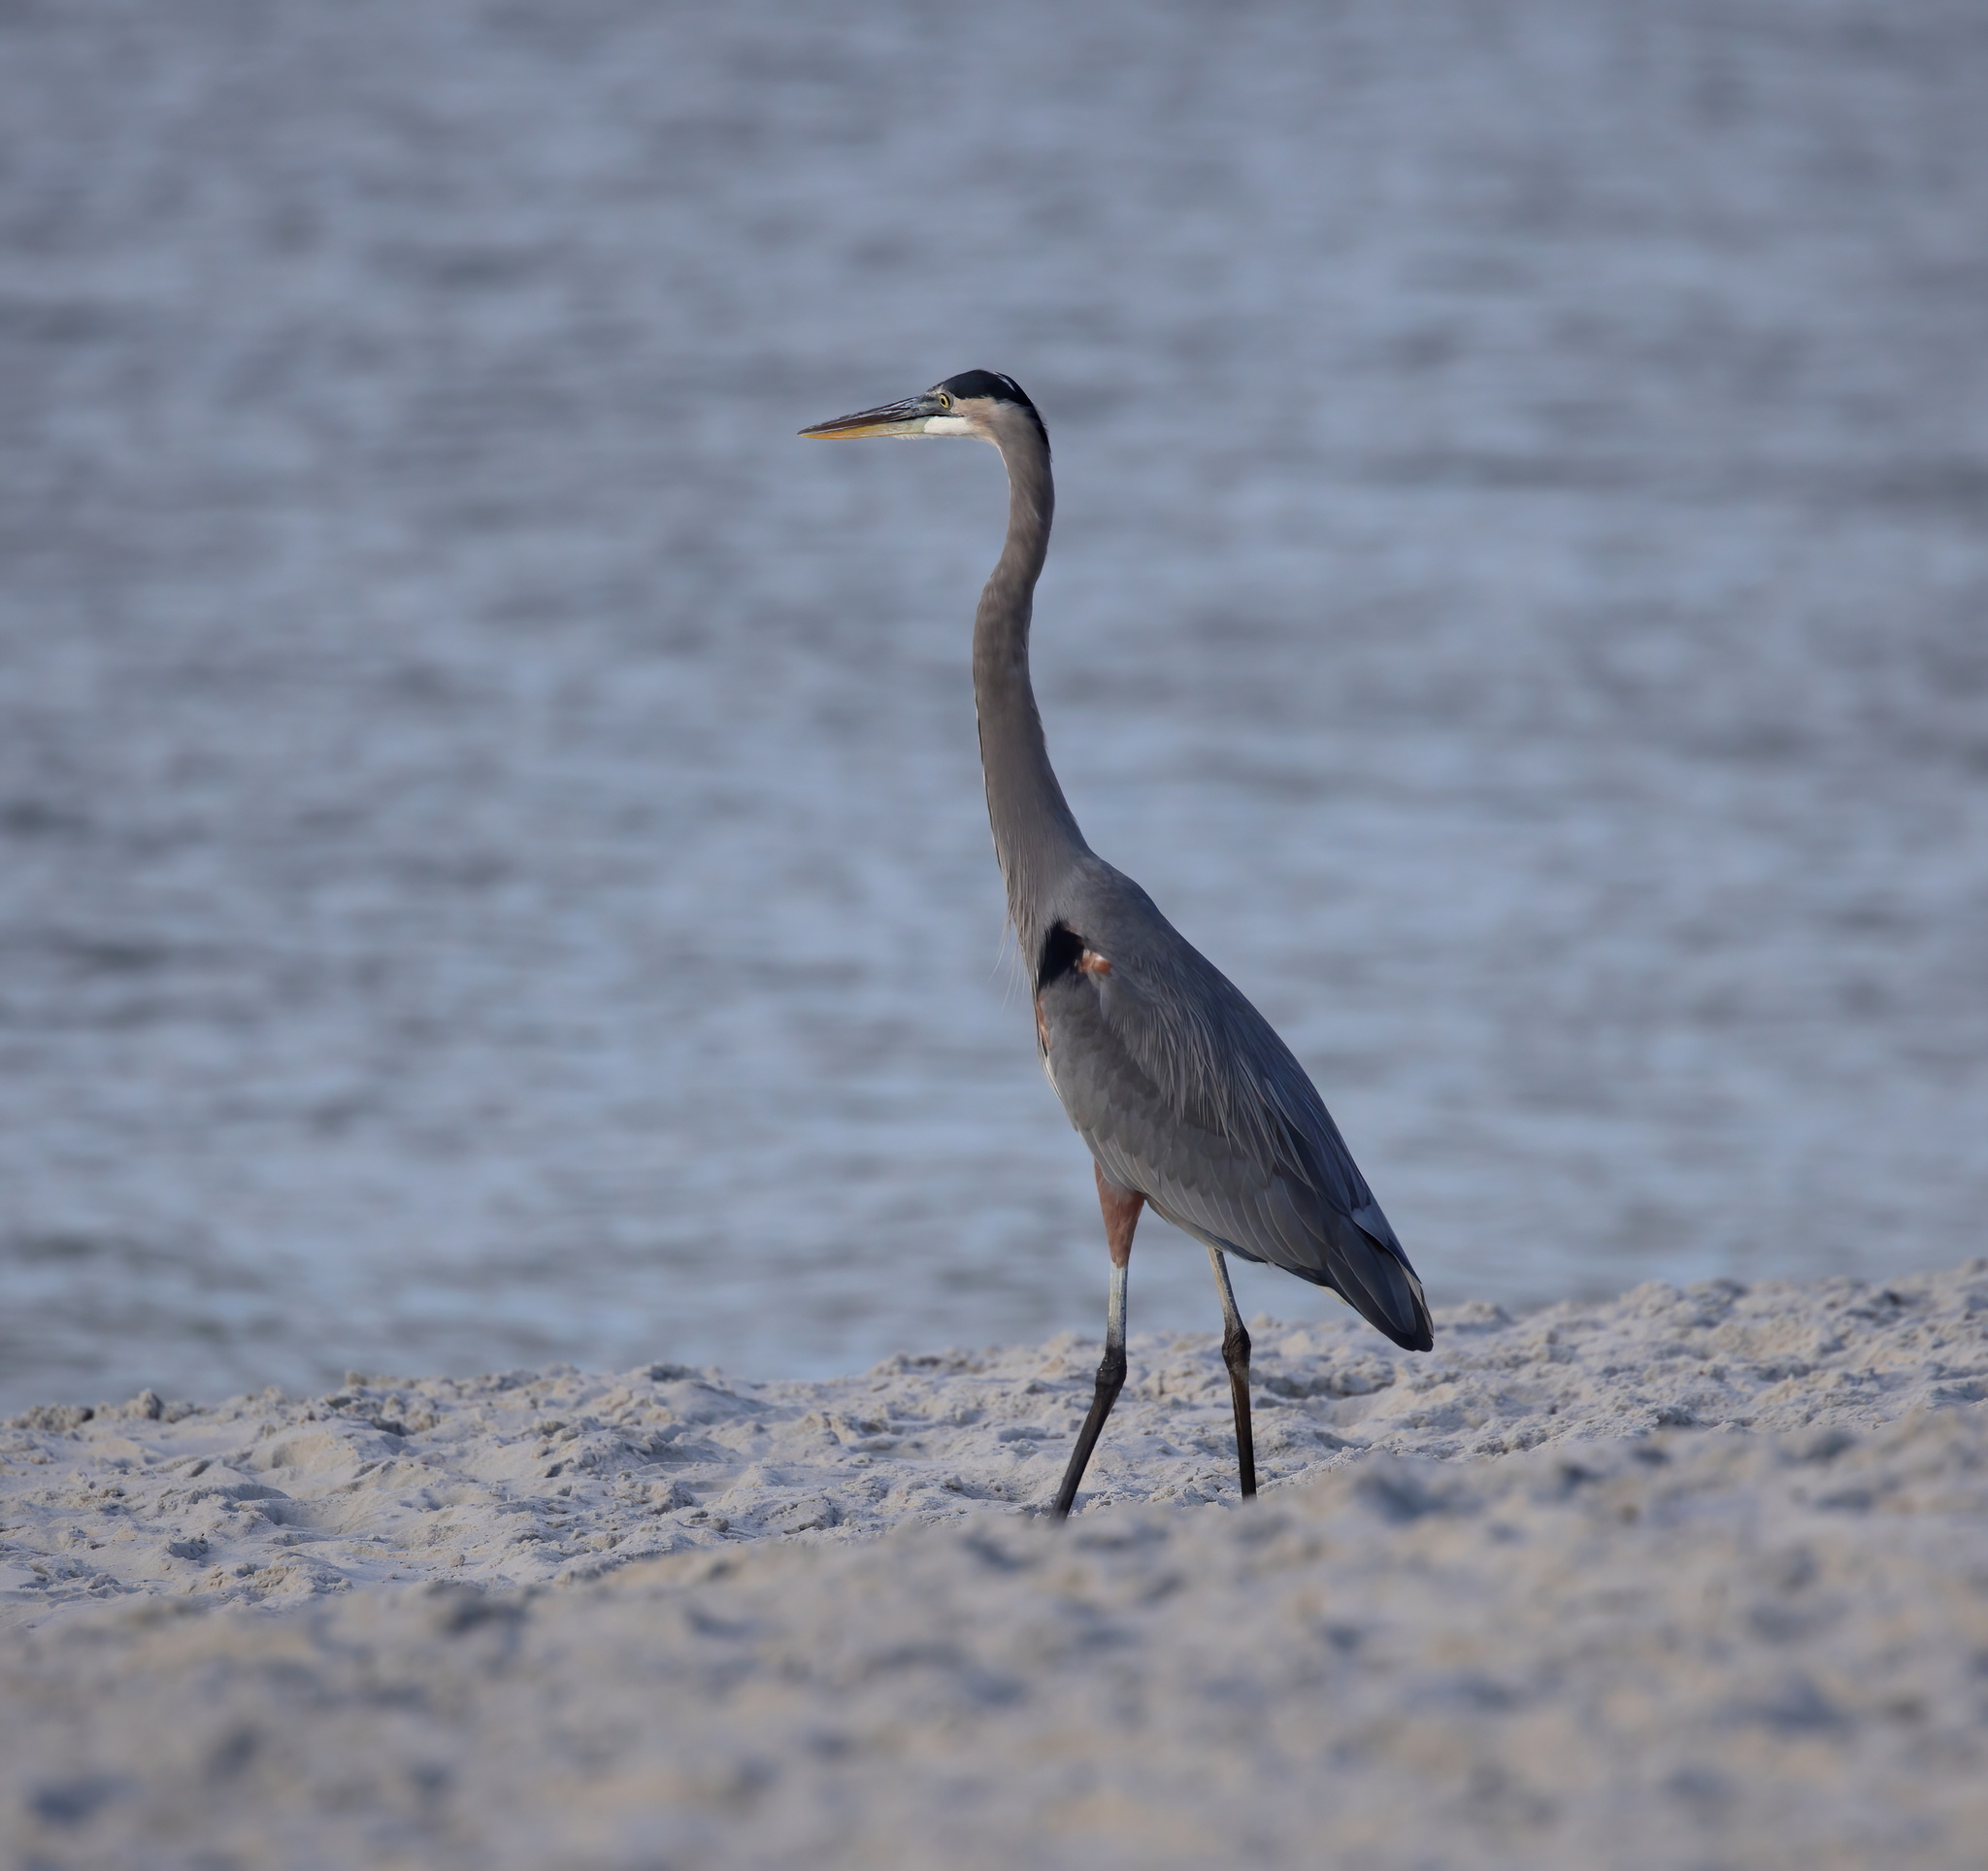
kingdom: Animalia
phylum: Chordata
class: Aves
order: Pelecaniformes
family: Ardeidae
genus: Ardea
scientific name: Ardea herodias
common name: Great blue heron
